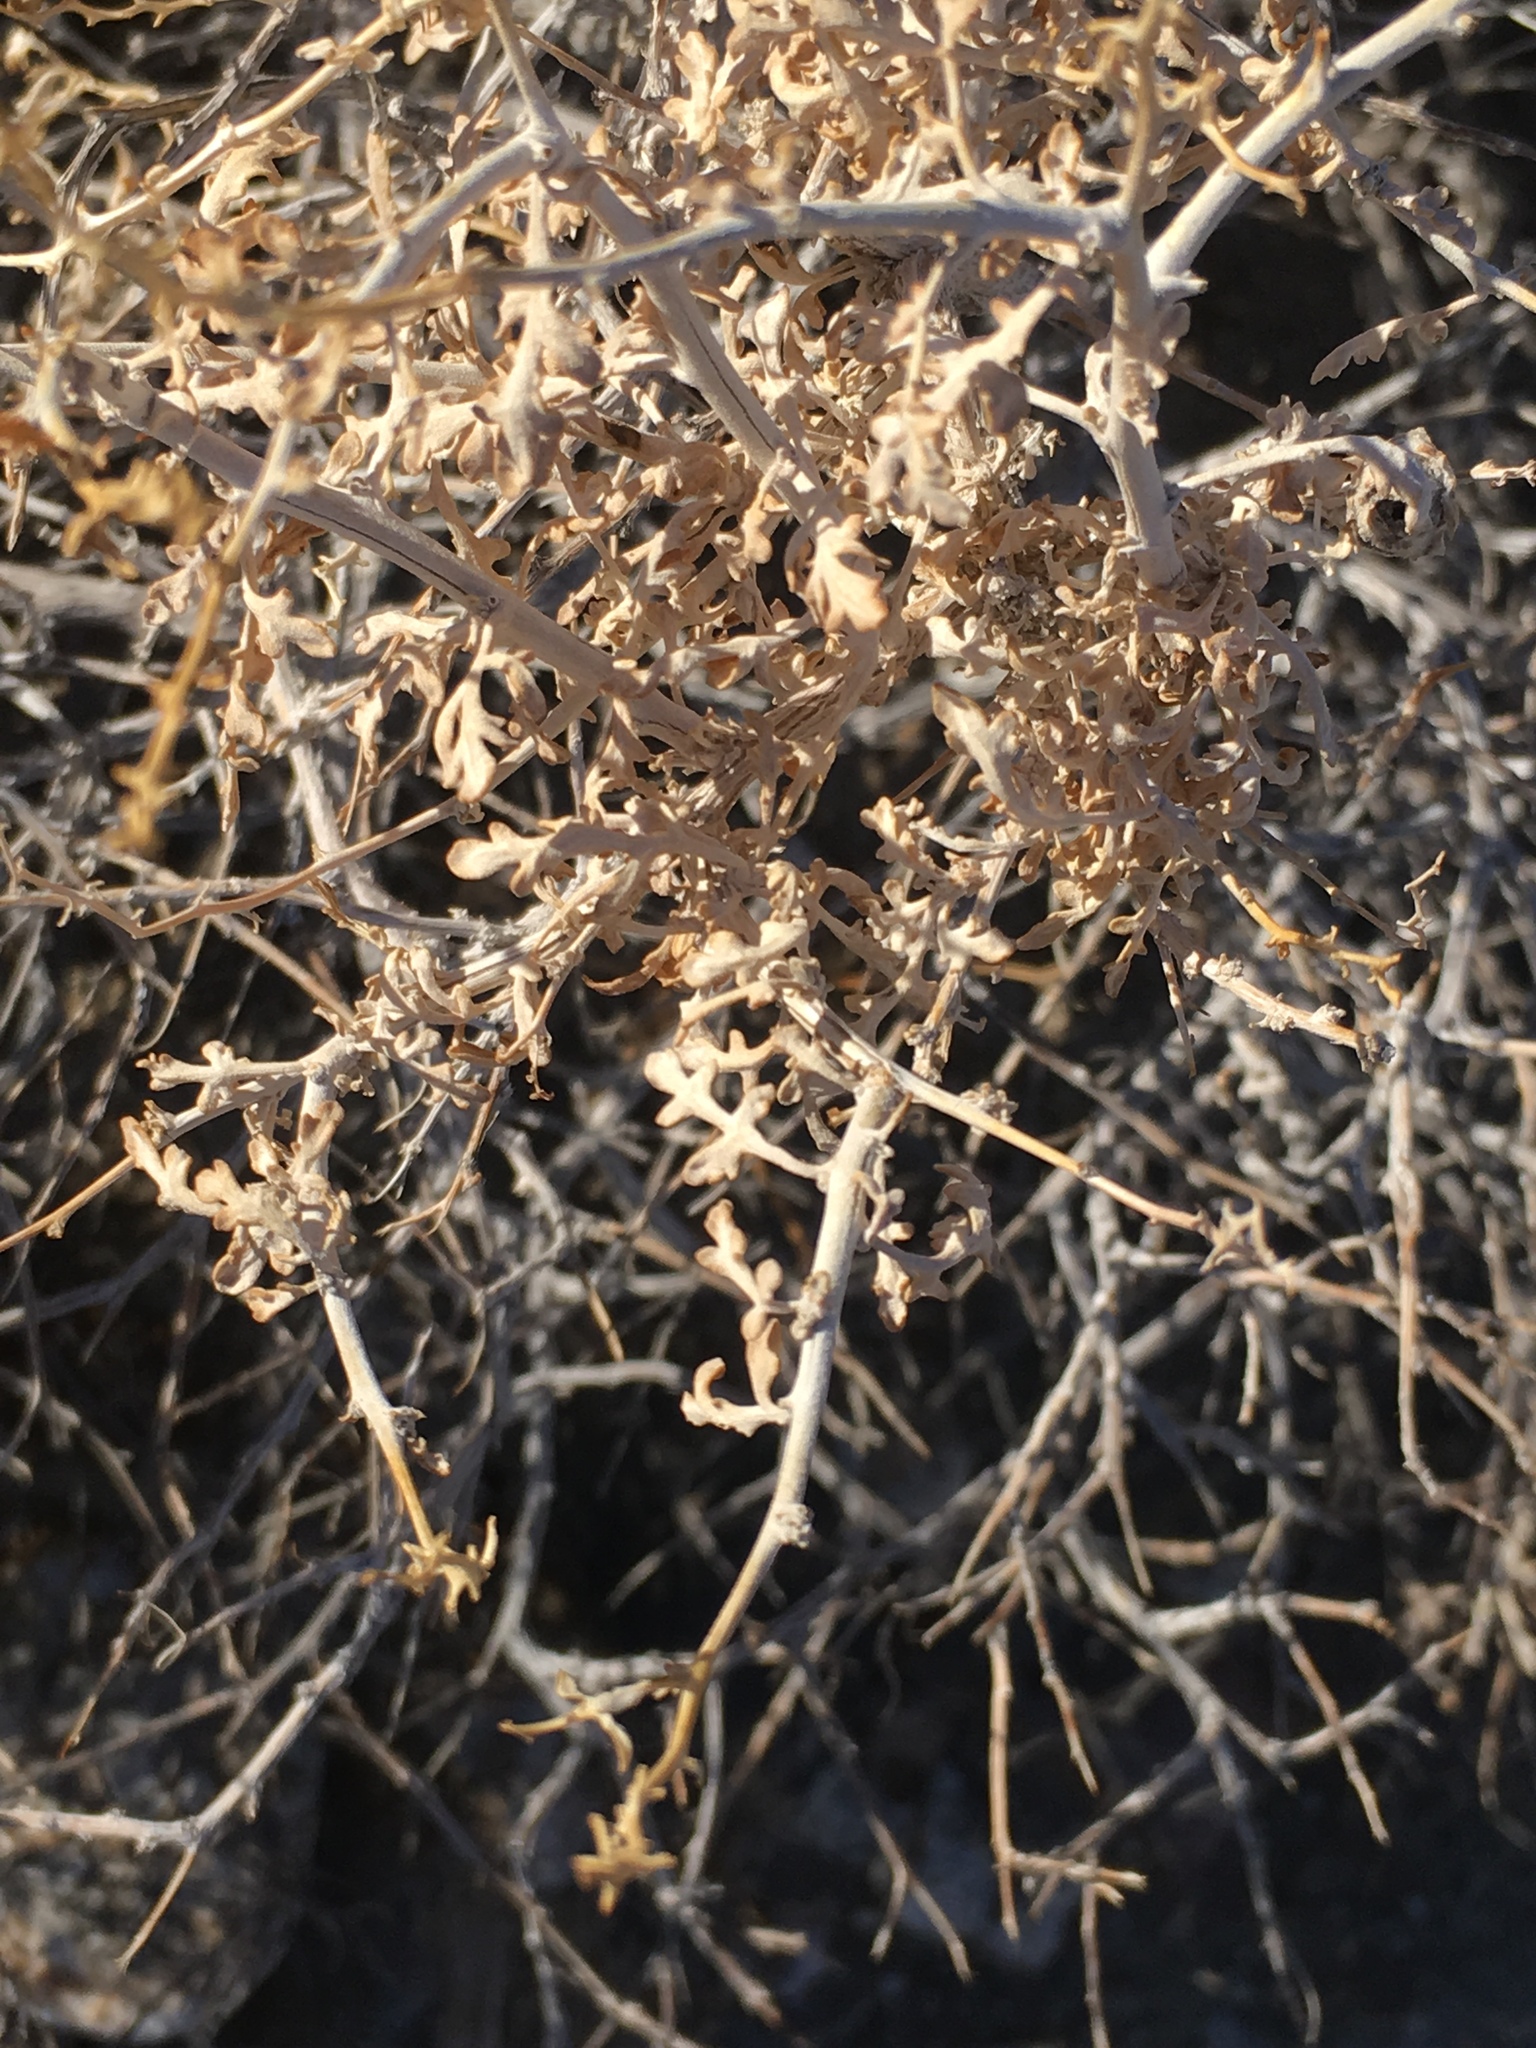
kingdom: Plantae
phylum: Tracheophyta
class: Magnoliopsida
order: Asterales
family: Asteraceae
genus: Ambrosia
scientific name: Ambrosia dumosa
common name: Bur-sage
